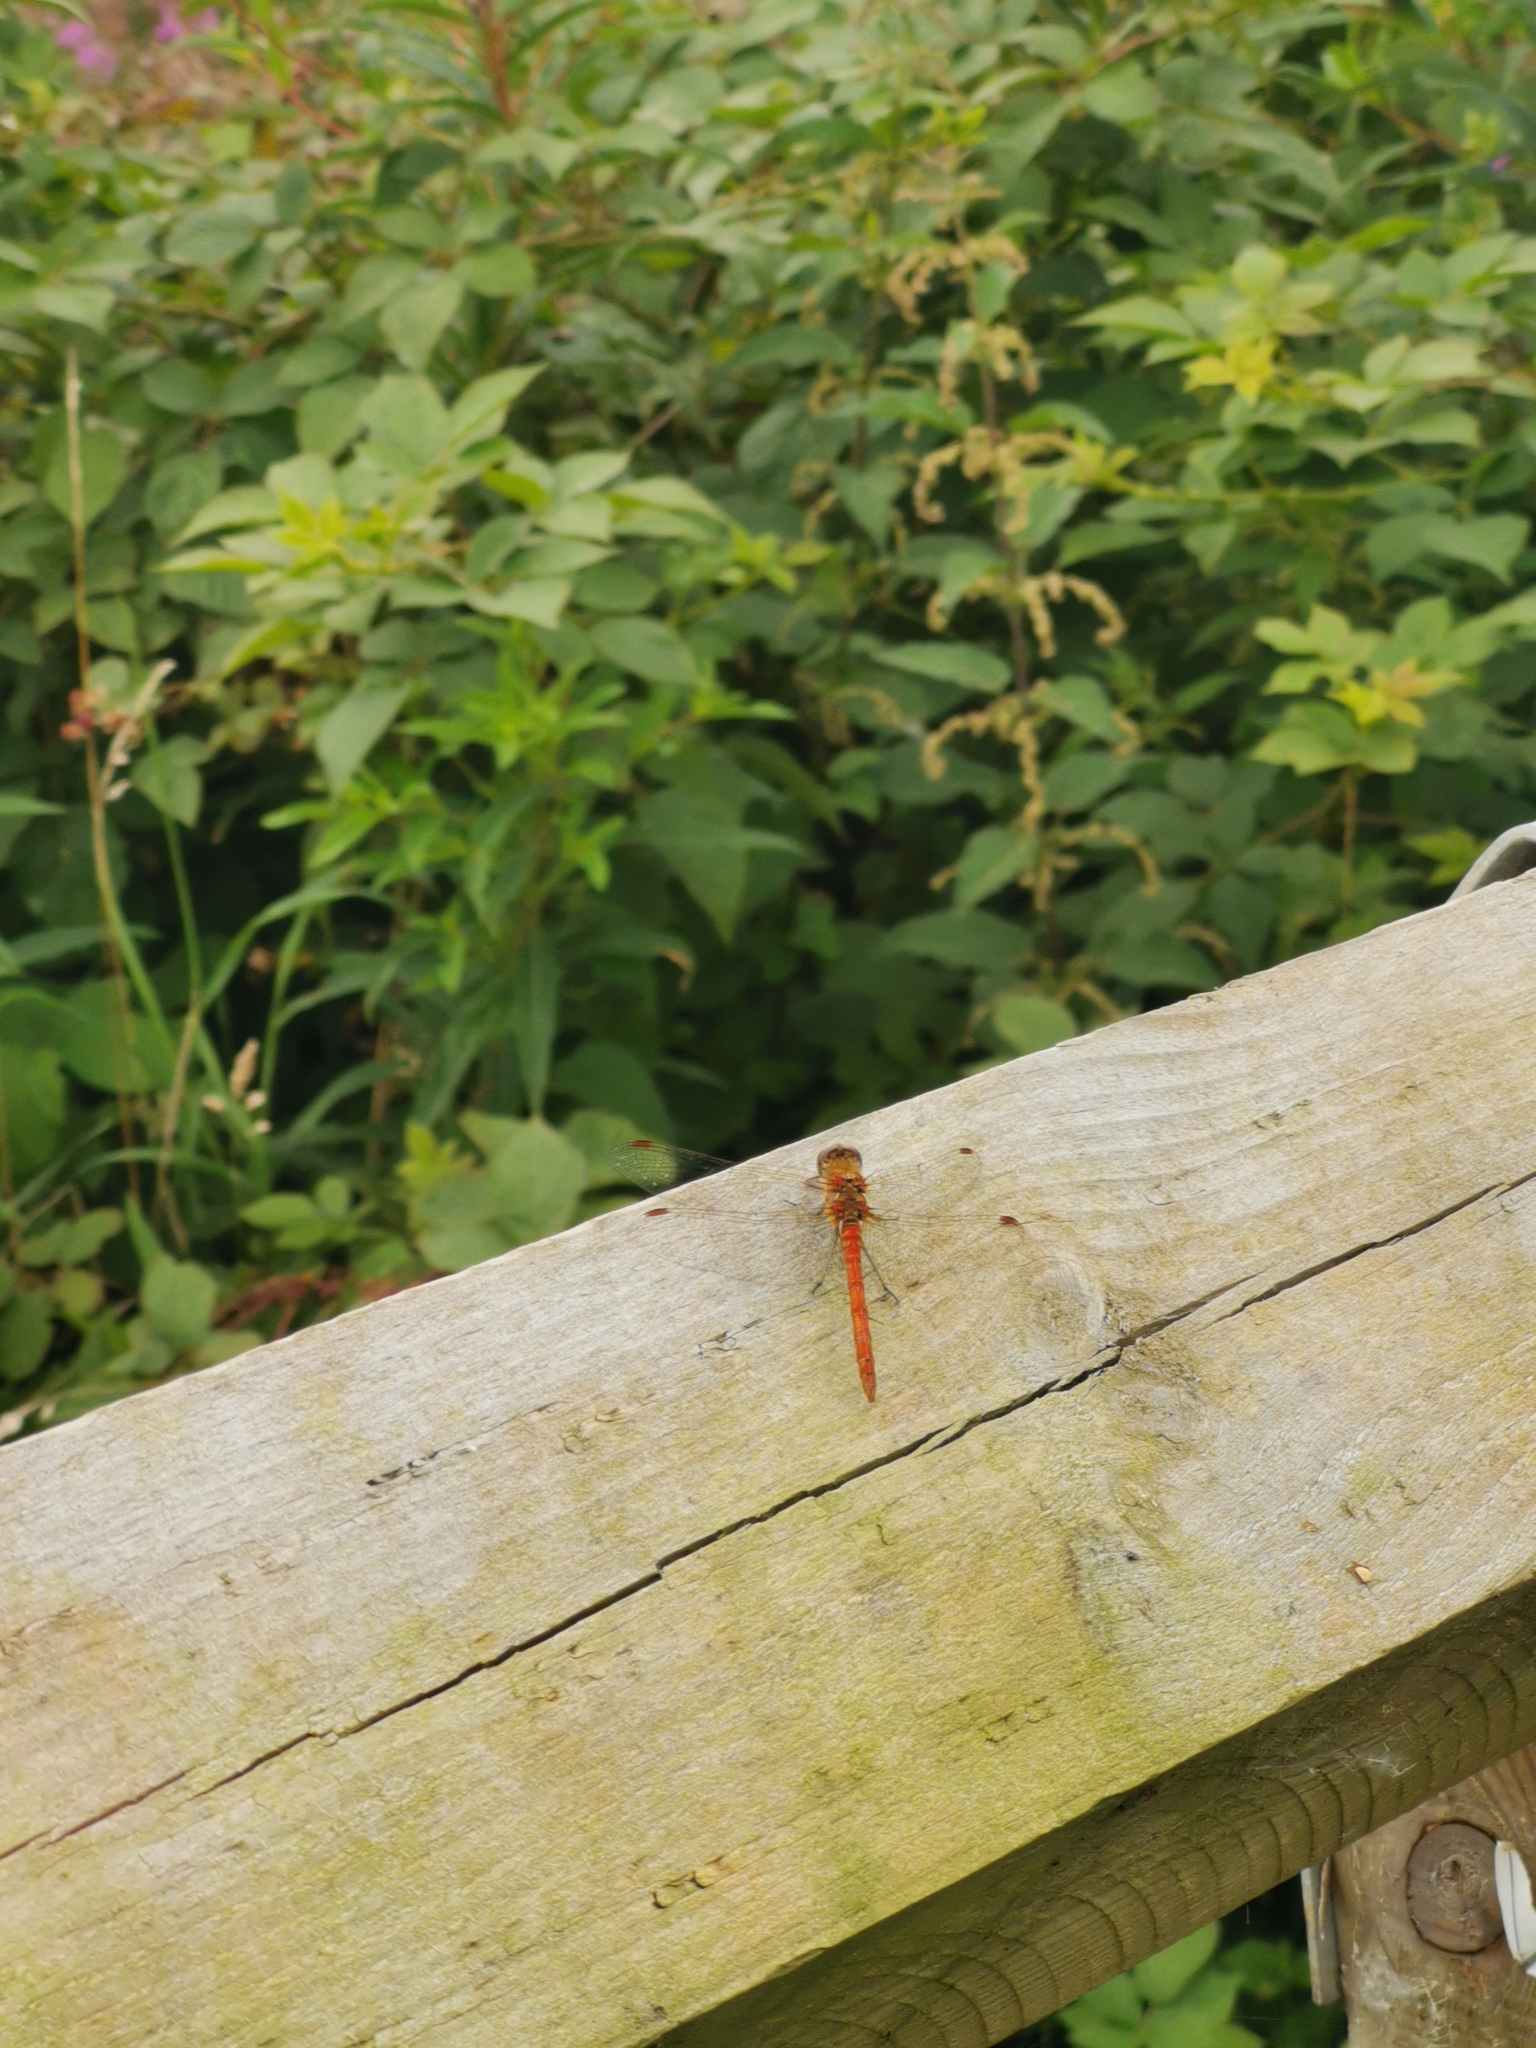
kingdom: Animalia
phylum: Arthropoda
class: Insecta
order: Odonata
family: Libellulidae
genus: Sympetrum
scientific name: Sympetrum striolatum
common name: Common darter
